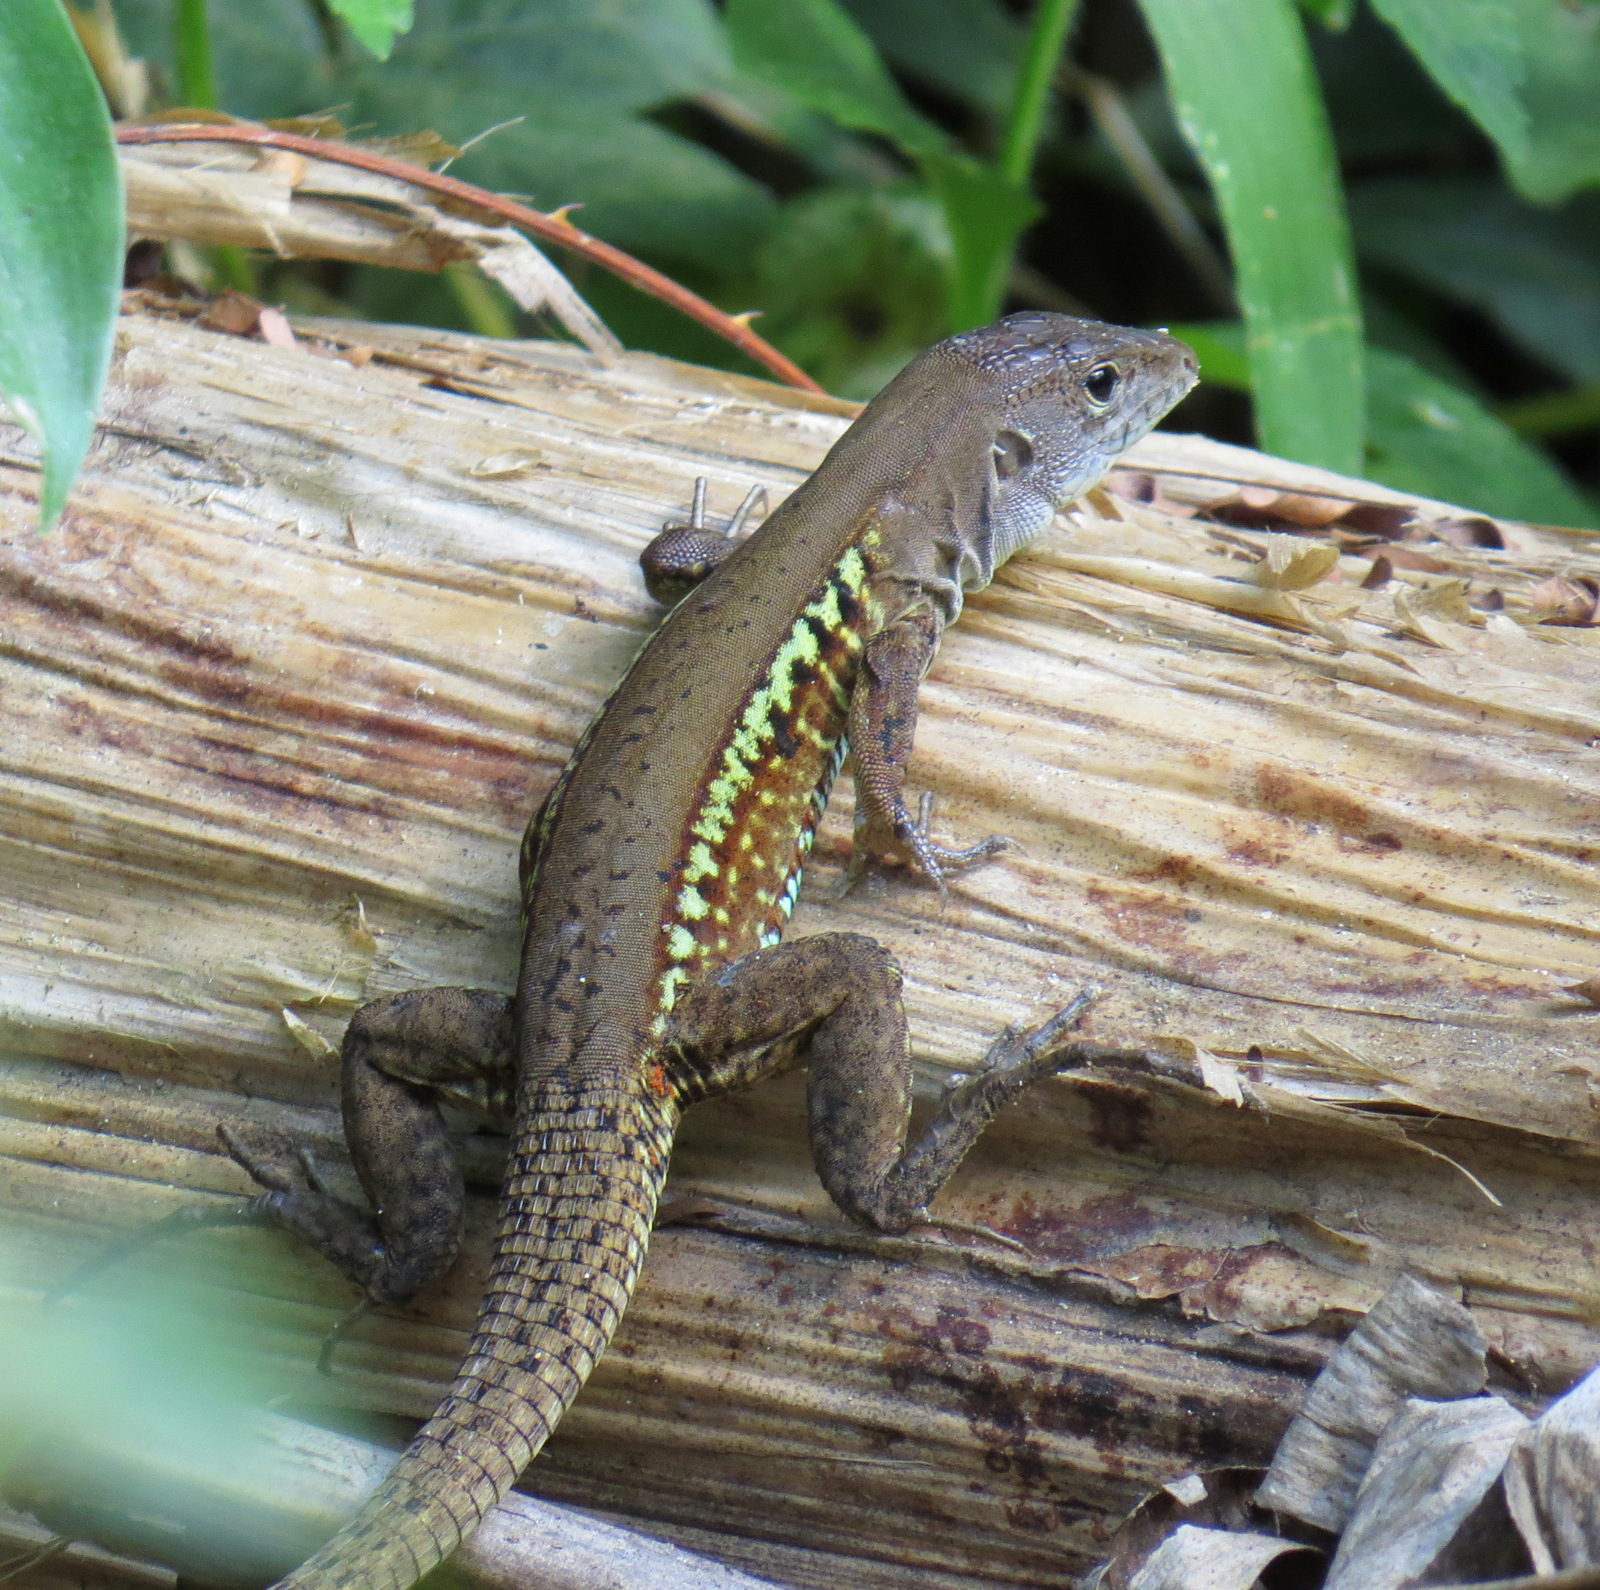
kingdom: Animalia
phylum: Chordata
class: Squamata
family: Teiidae
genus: Holcosus
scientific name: Holcosus undulatus
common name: Rainbow ameiva
